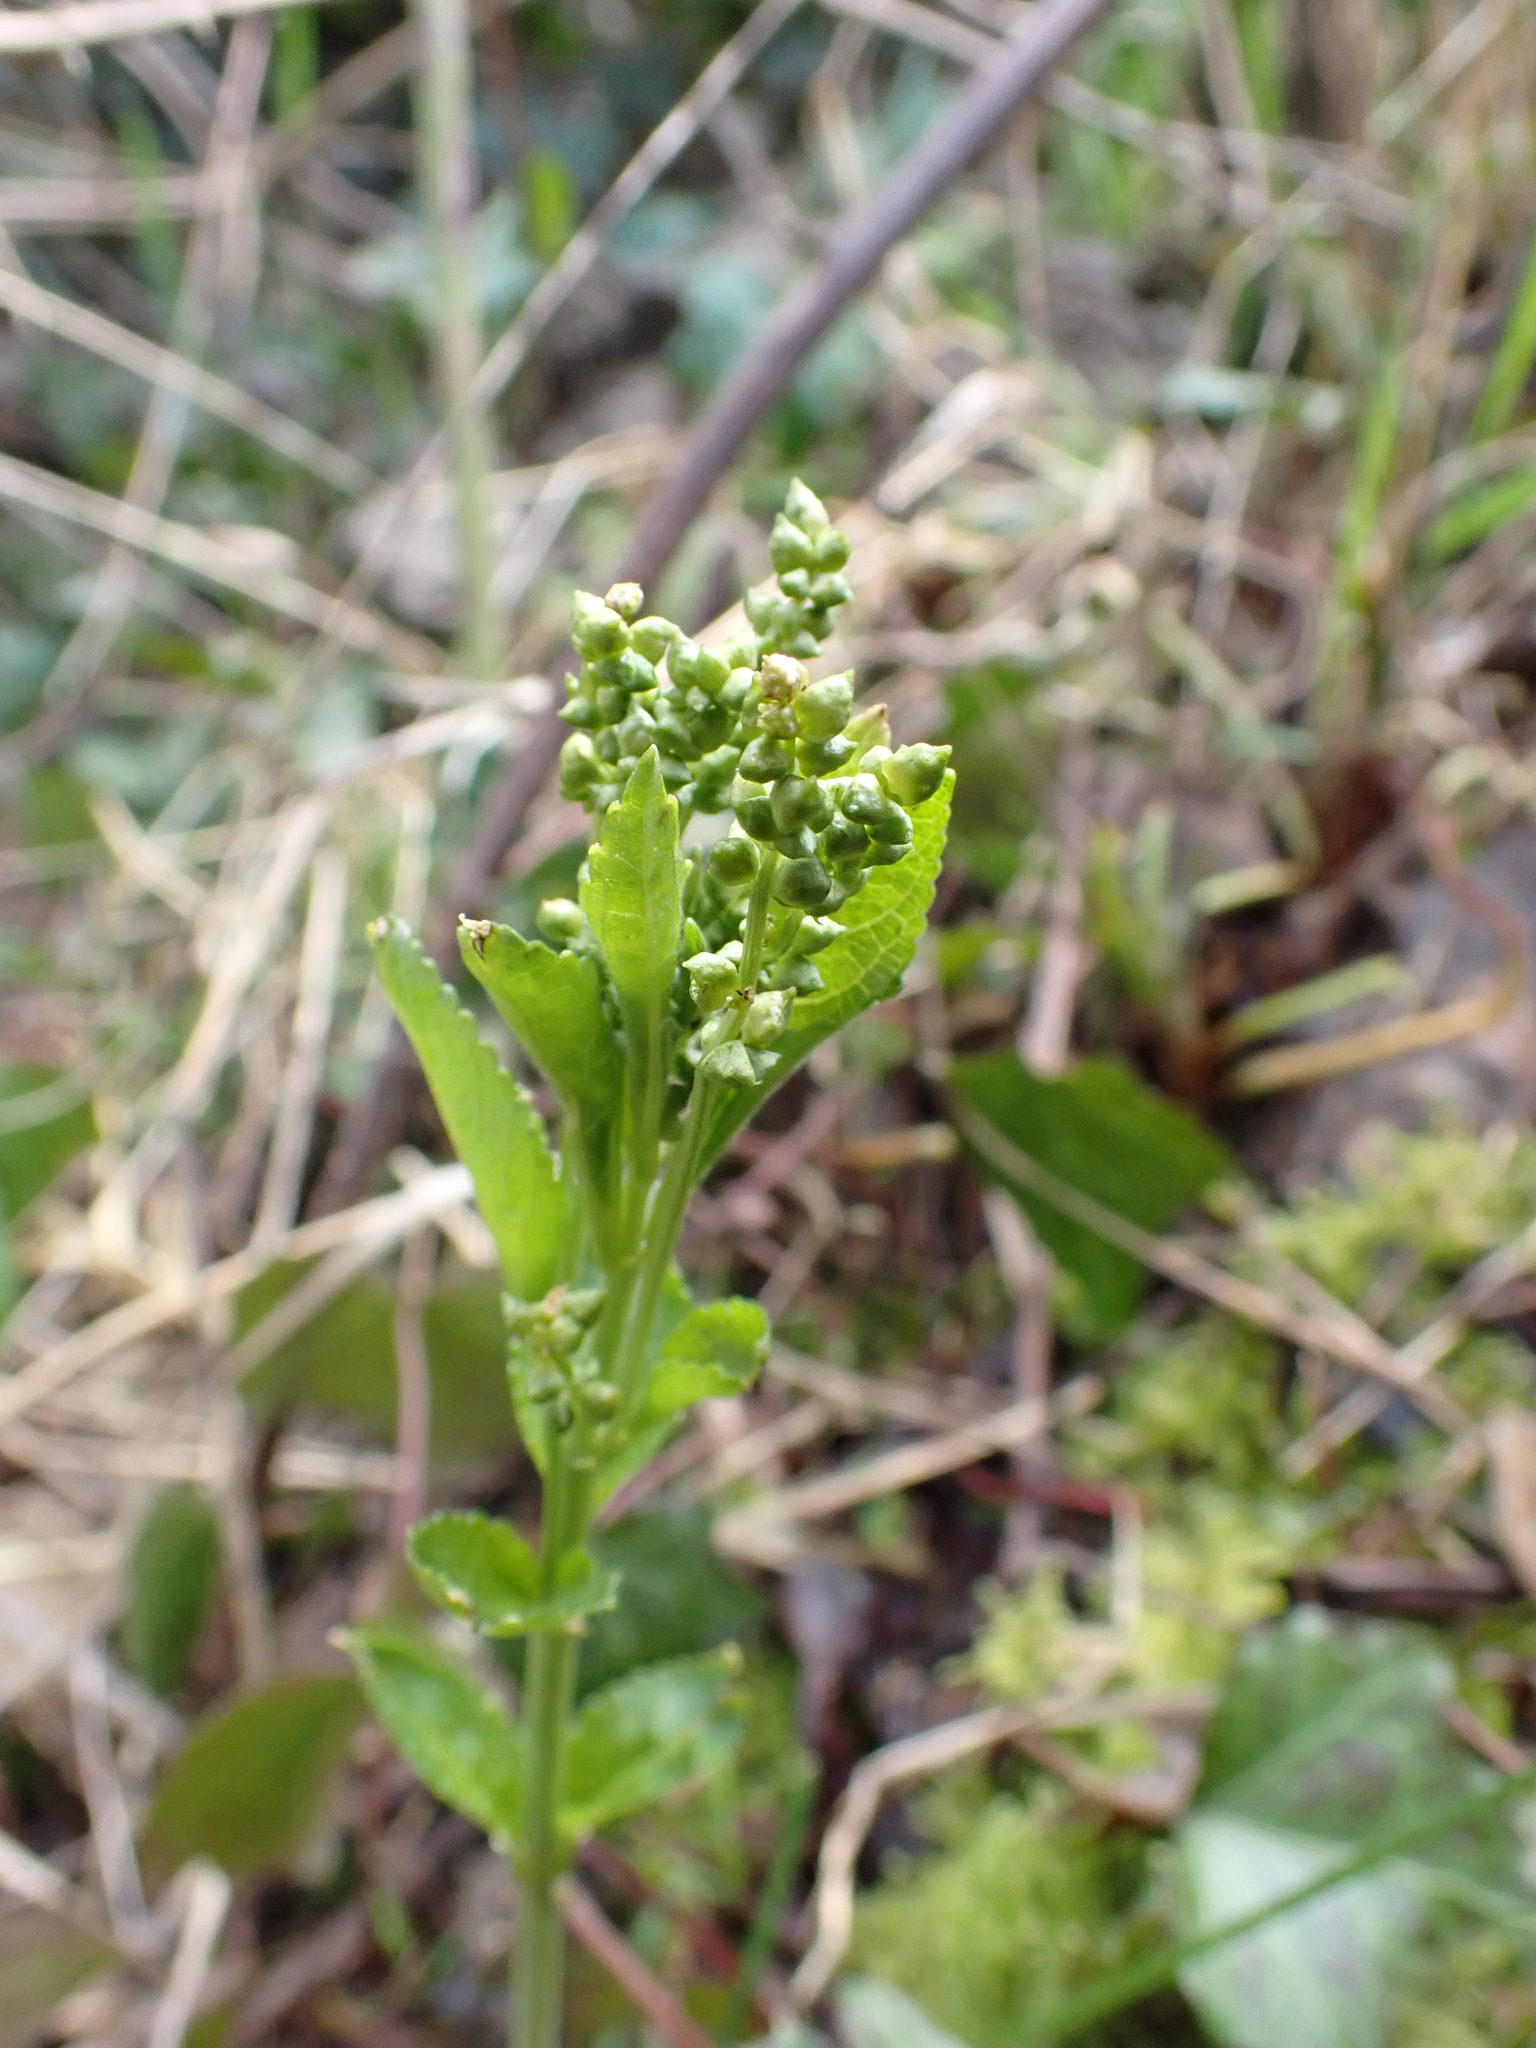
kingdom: Plantae
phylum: Tracheophyta
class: Magnoliopsida
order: Malpighiales
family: Euphorbiaceae
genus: Mercurialis
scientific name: Mercurialis perennis
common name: Dog mercury
